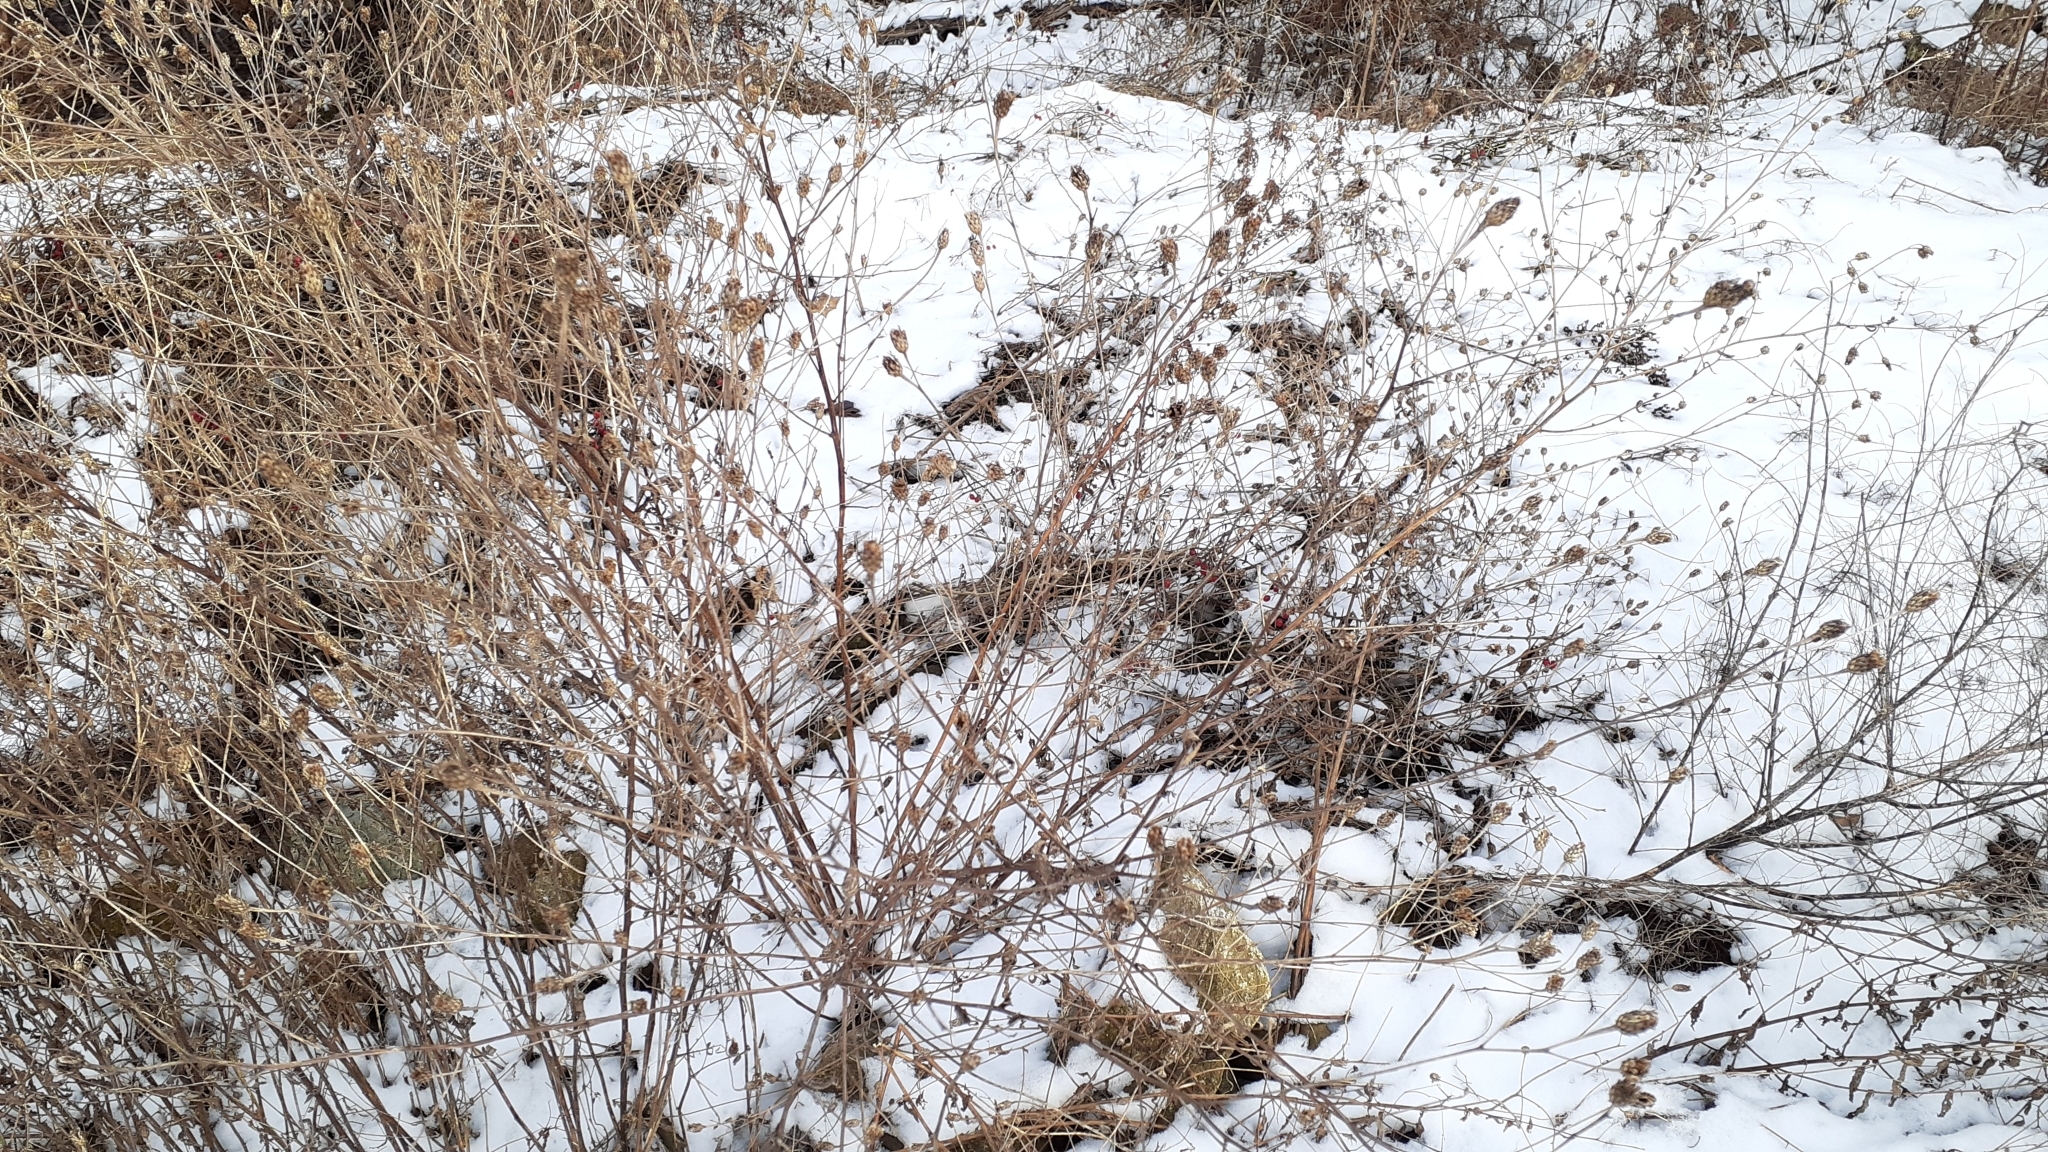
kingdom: Plantae
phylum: Tracheophyta
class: Magnoliopsida
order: Asterales
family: Asteraceae
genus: Centaurea
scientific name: Centaurea moncktonii
